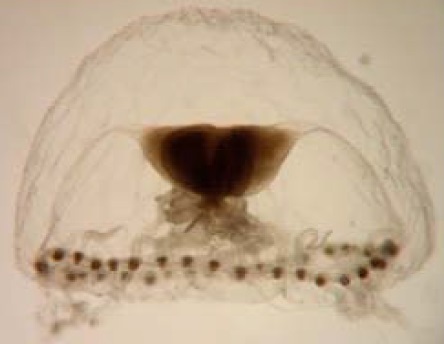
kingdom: Animalia
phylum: Cnidaria
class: Hydrozoa
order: Anthoathecata
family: Proboscidactylidae
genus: Proboscidactyla
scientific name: Proboscidactyla mutabilis
